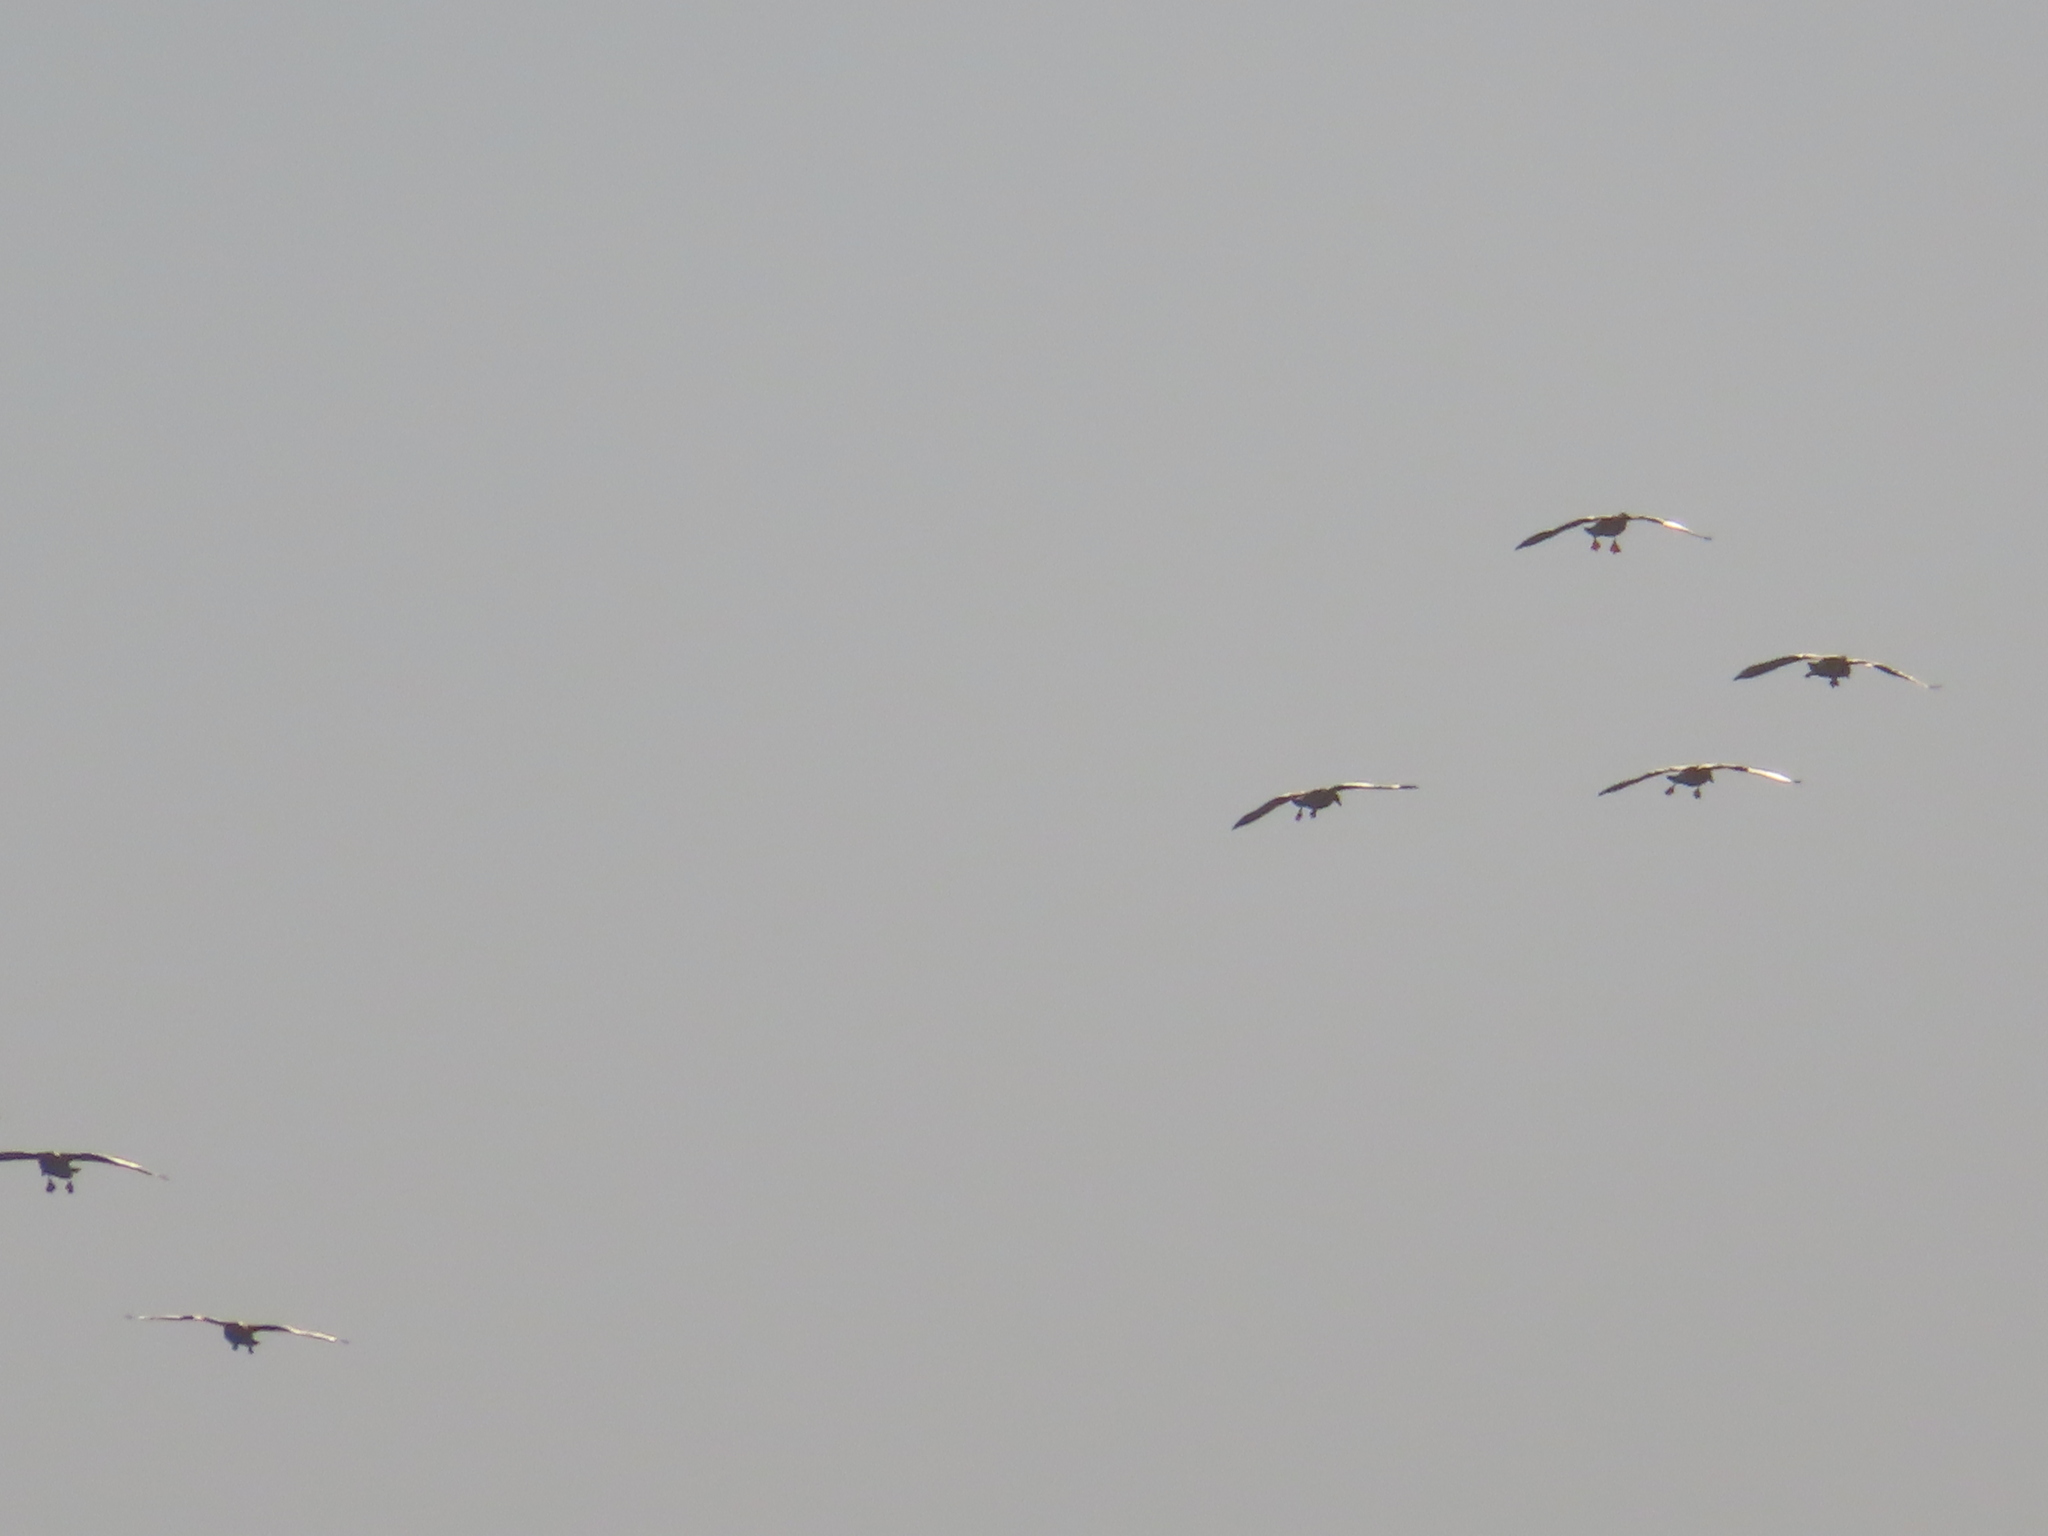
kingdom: Animalia
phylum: Chordata
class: Aves
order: Anseriformes
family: Anatidae
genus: Anser
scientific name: Anser caerulescens
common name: Snow goose
